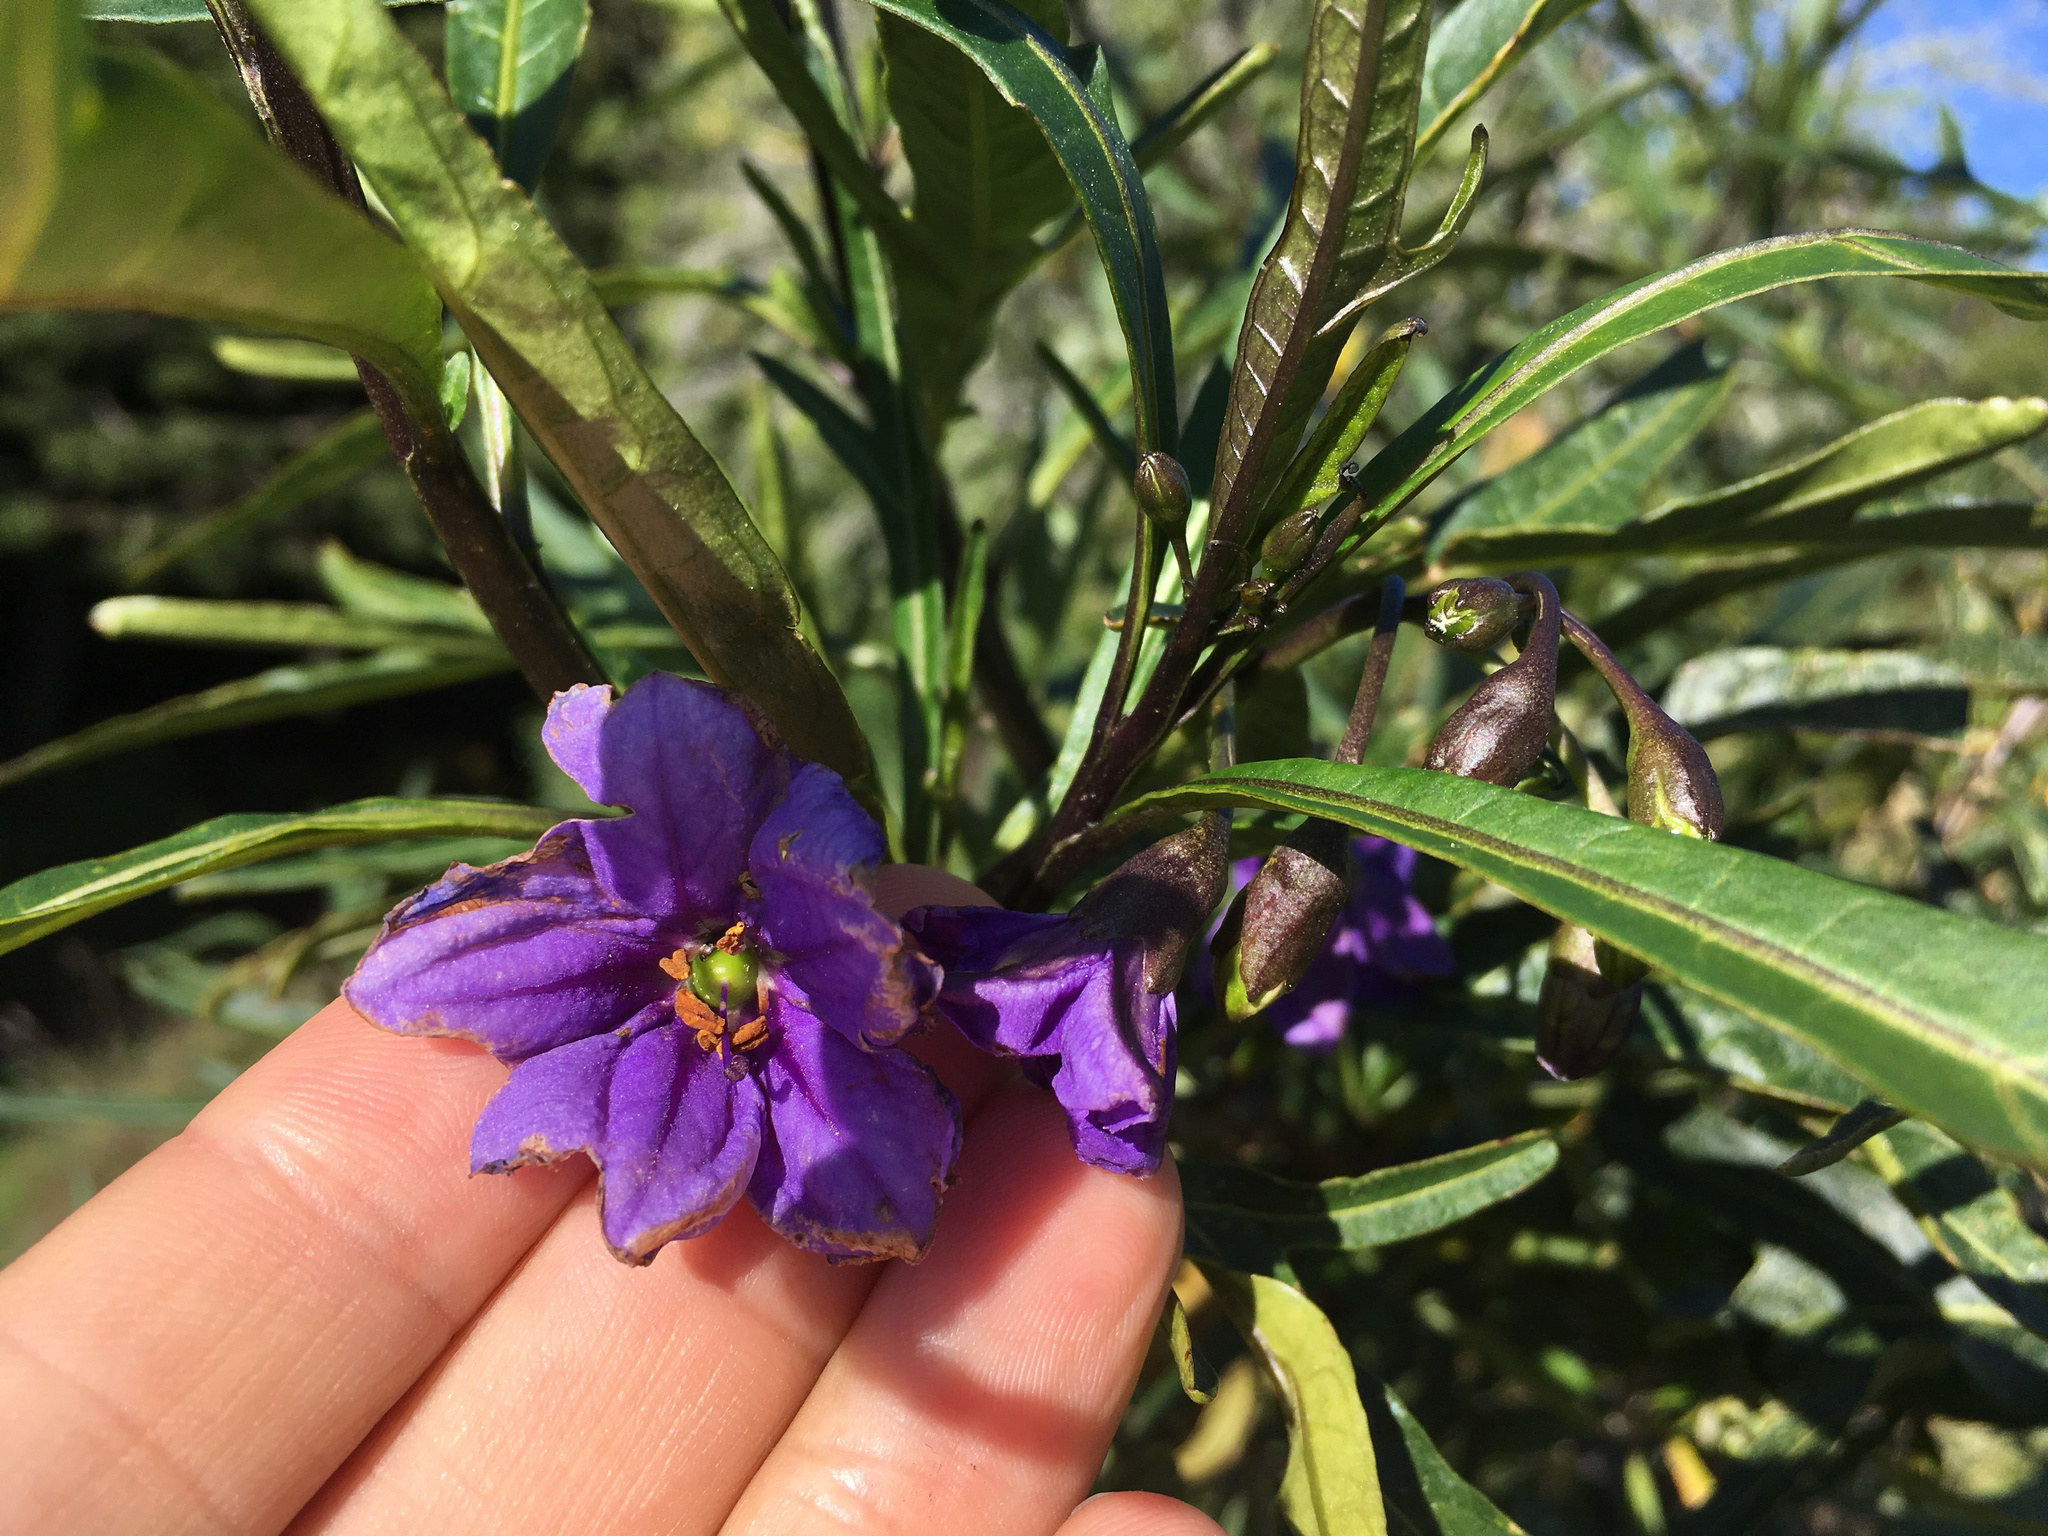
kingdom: Plantae
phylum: Tracheophyta
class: Magnoliopsida
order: Solanales
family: Solanaceae
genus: Solanum
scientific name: Solanum laciniatum
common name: Kangaroo-apple
